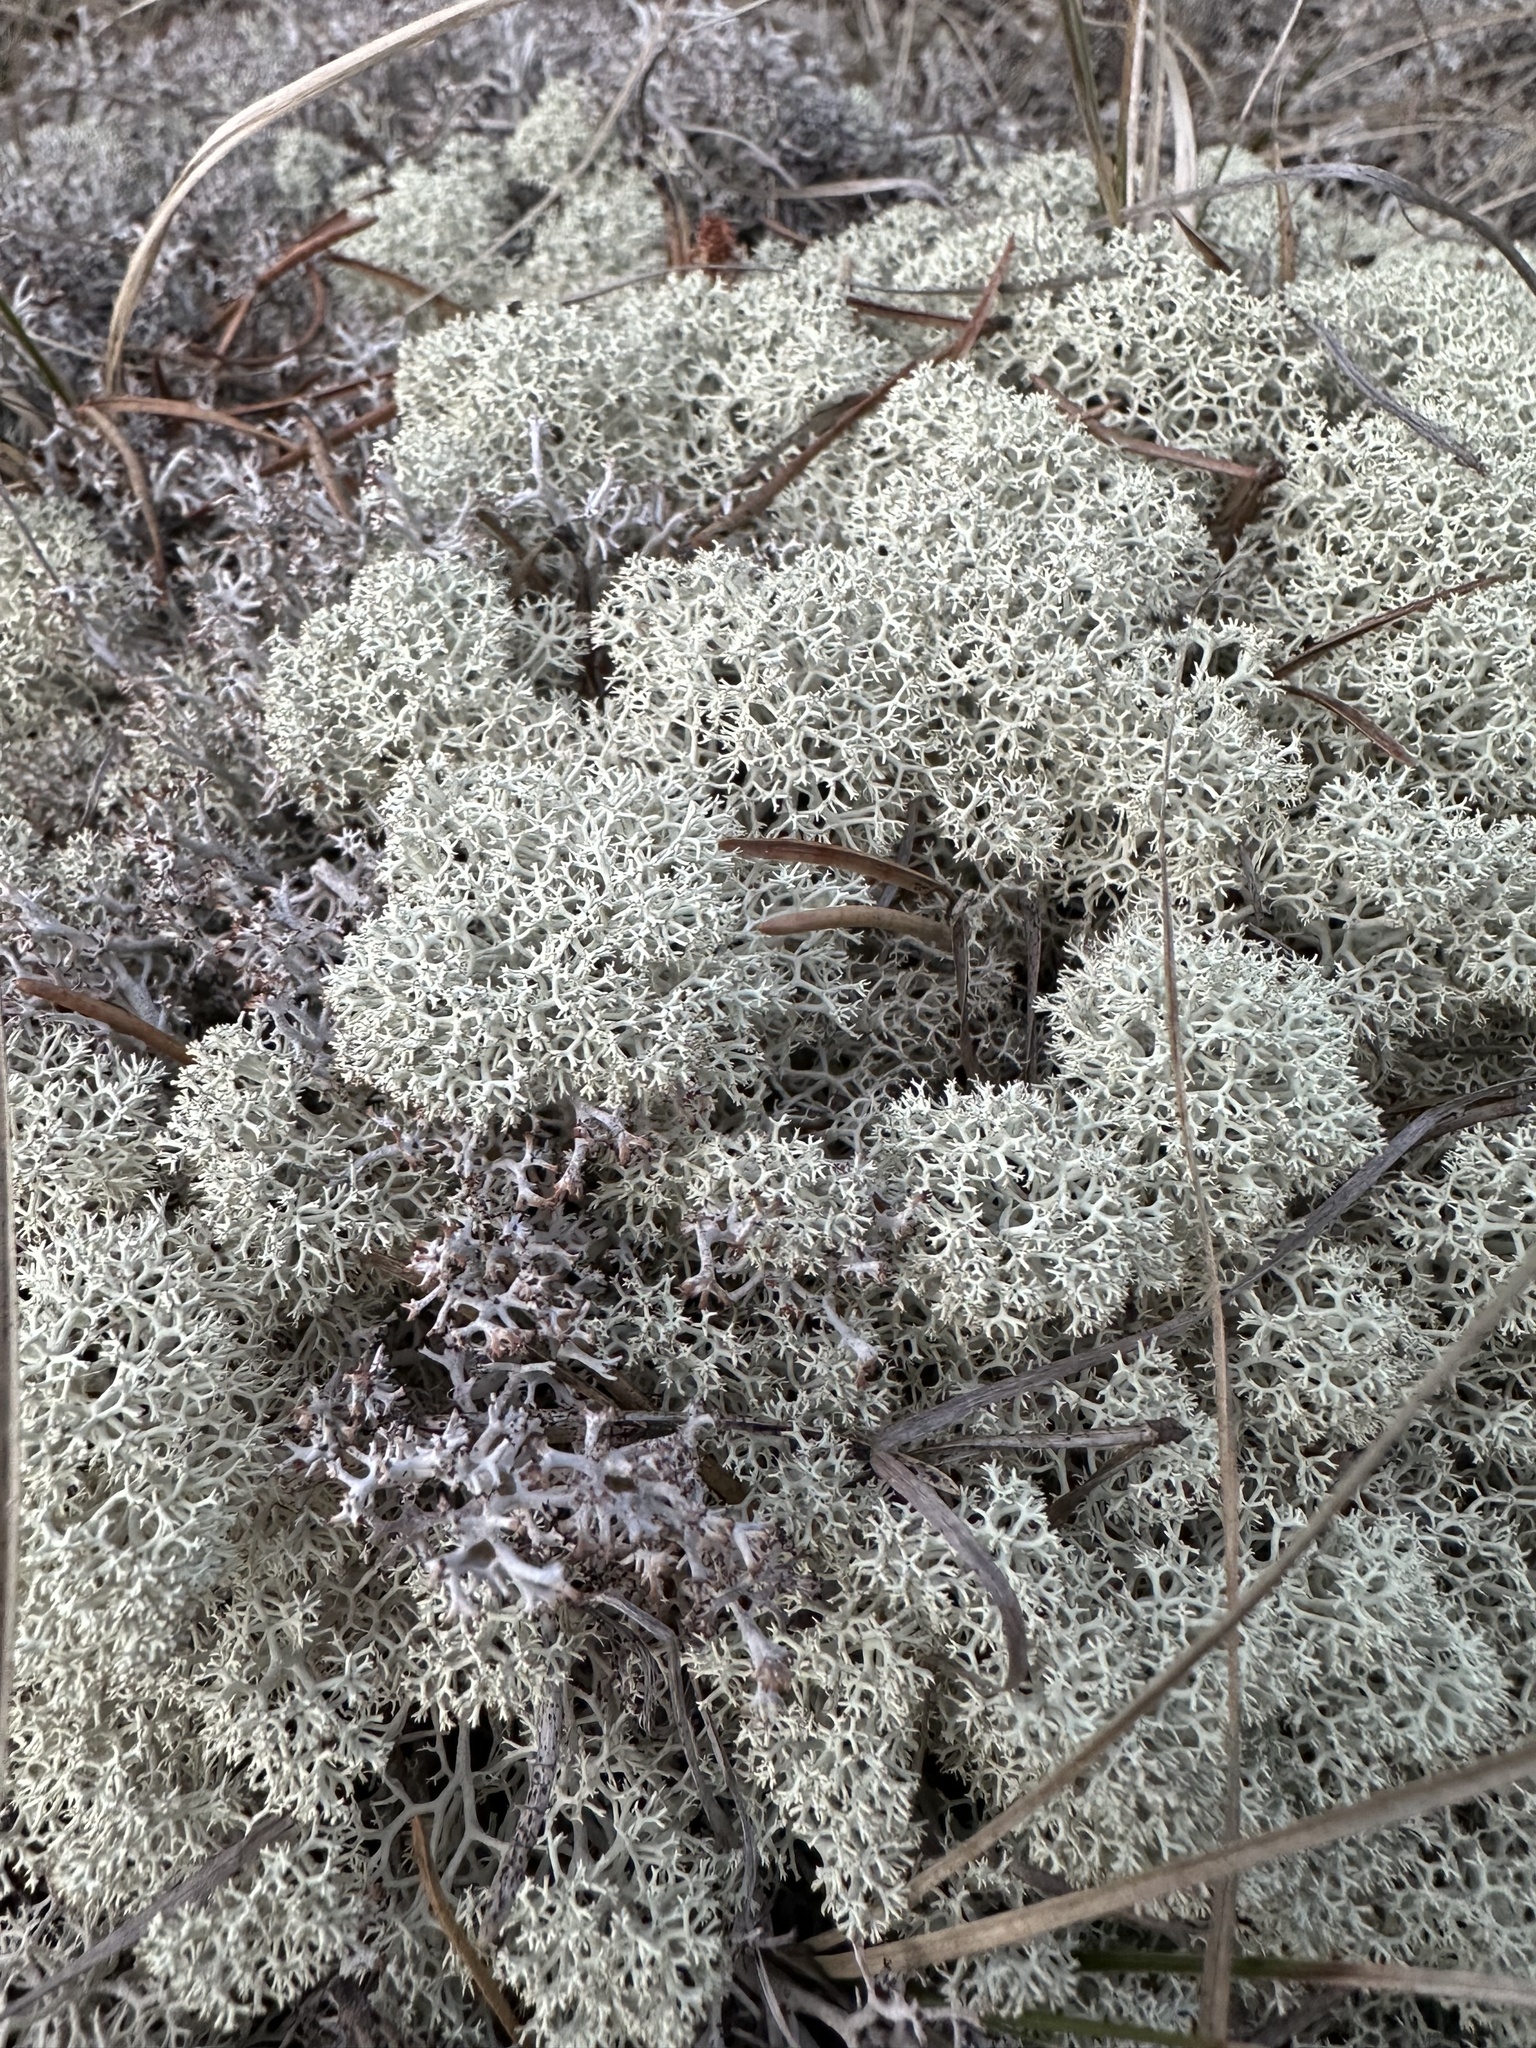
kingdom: Fungi
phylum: Ascomycota
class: Lecanoromycetes
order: Lecanorales
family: Cladoniaceae
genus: Cladonia
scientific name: Cladonia stellaris
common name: Star-tipped reindeer lichen
